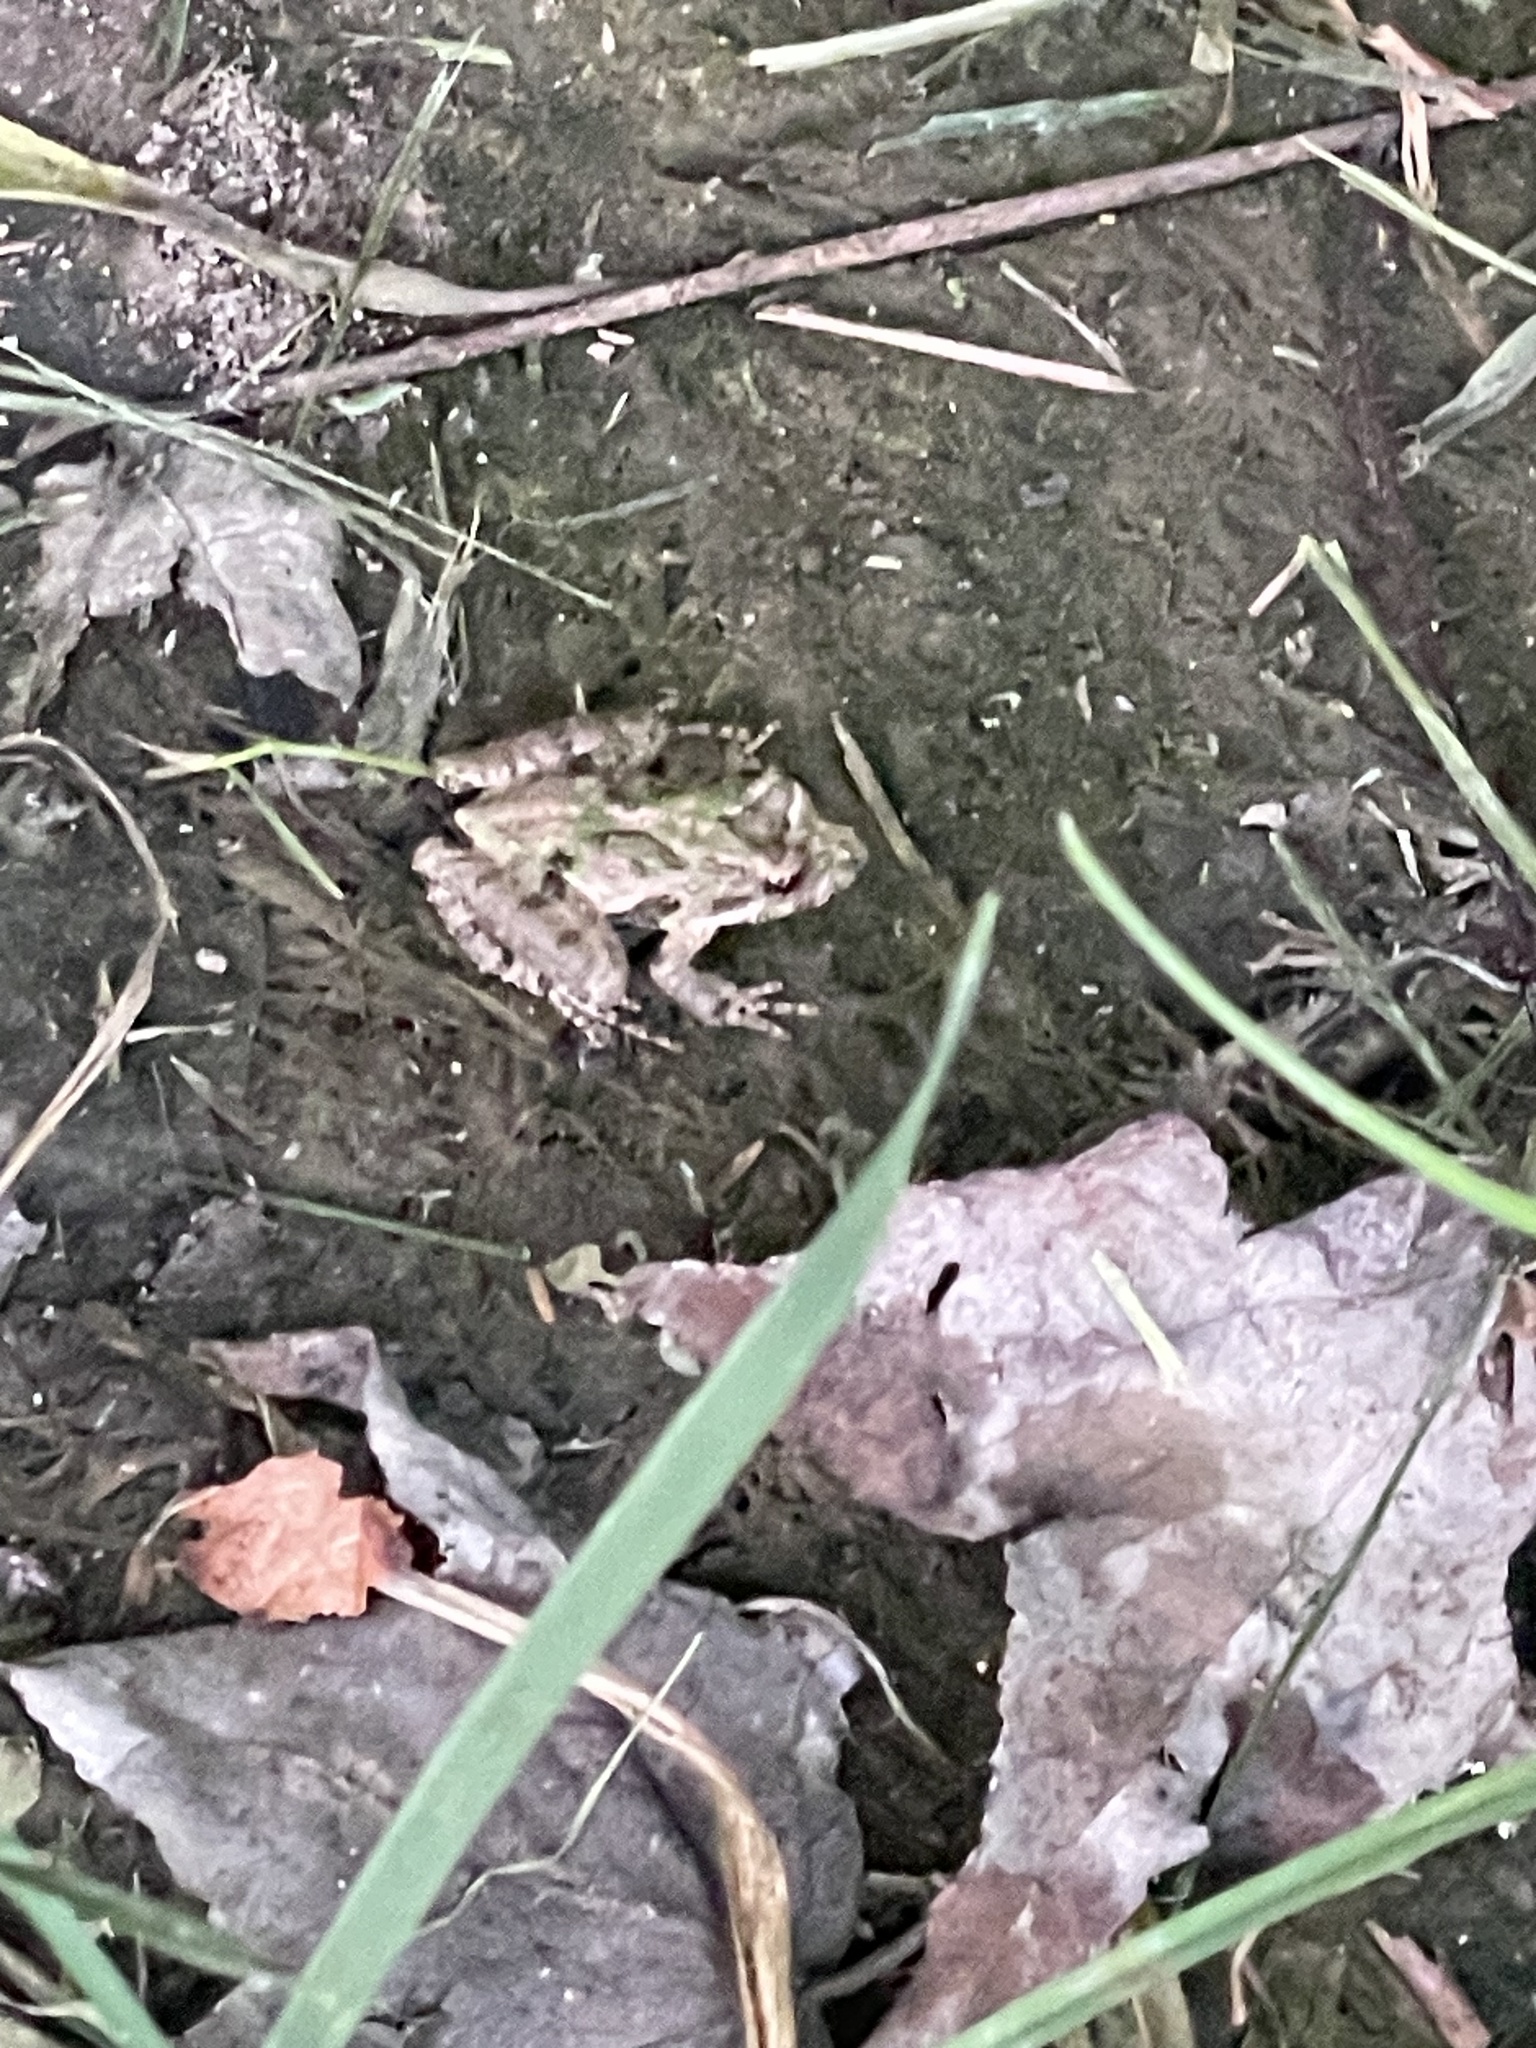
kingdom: Animalia
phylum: Chordata
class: Amphibia
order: Anura
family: Hylidae
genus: Acris
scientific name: Acris crepitans
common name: Northern cricket frog
